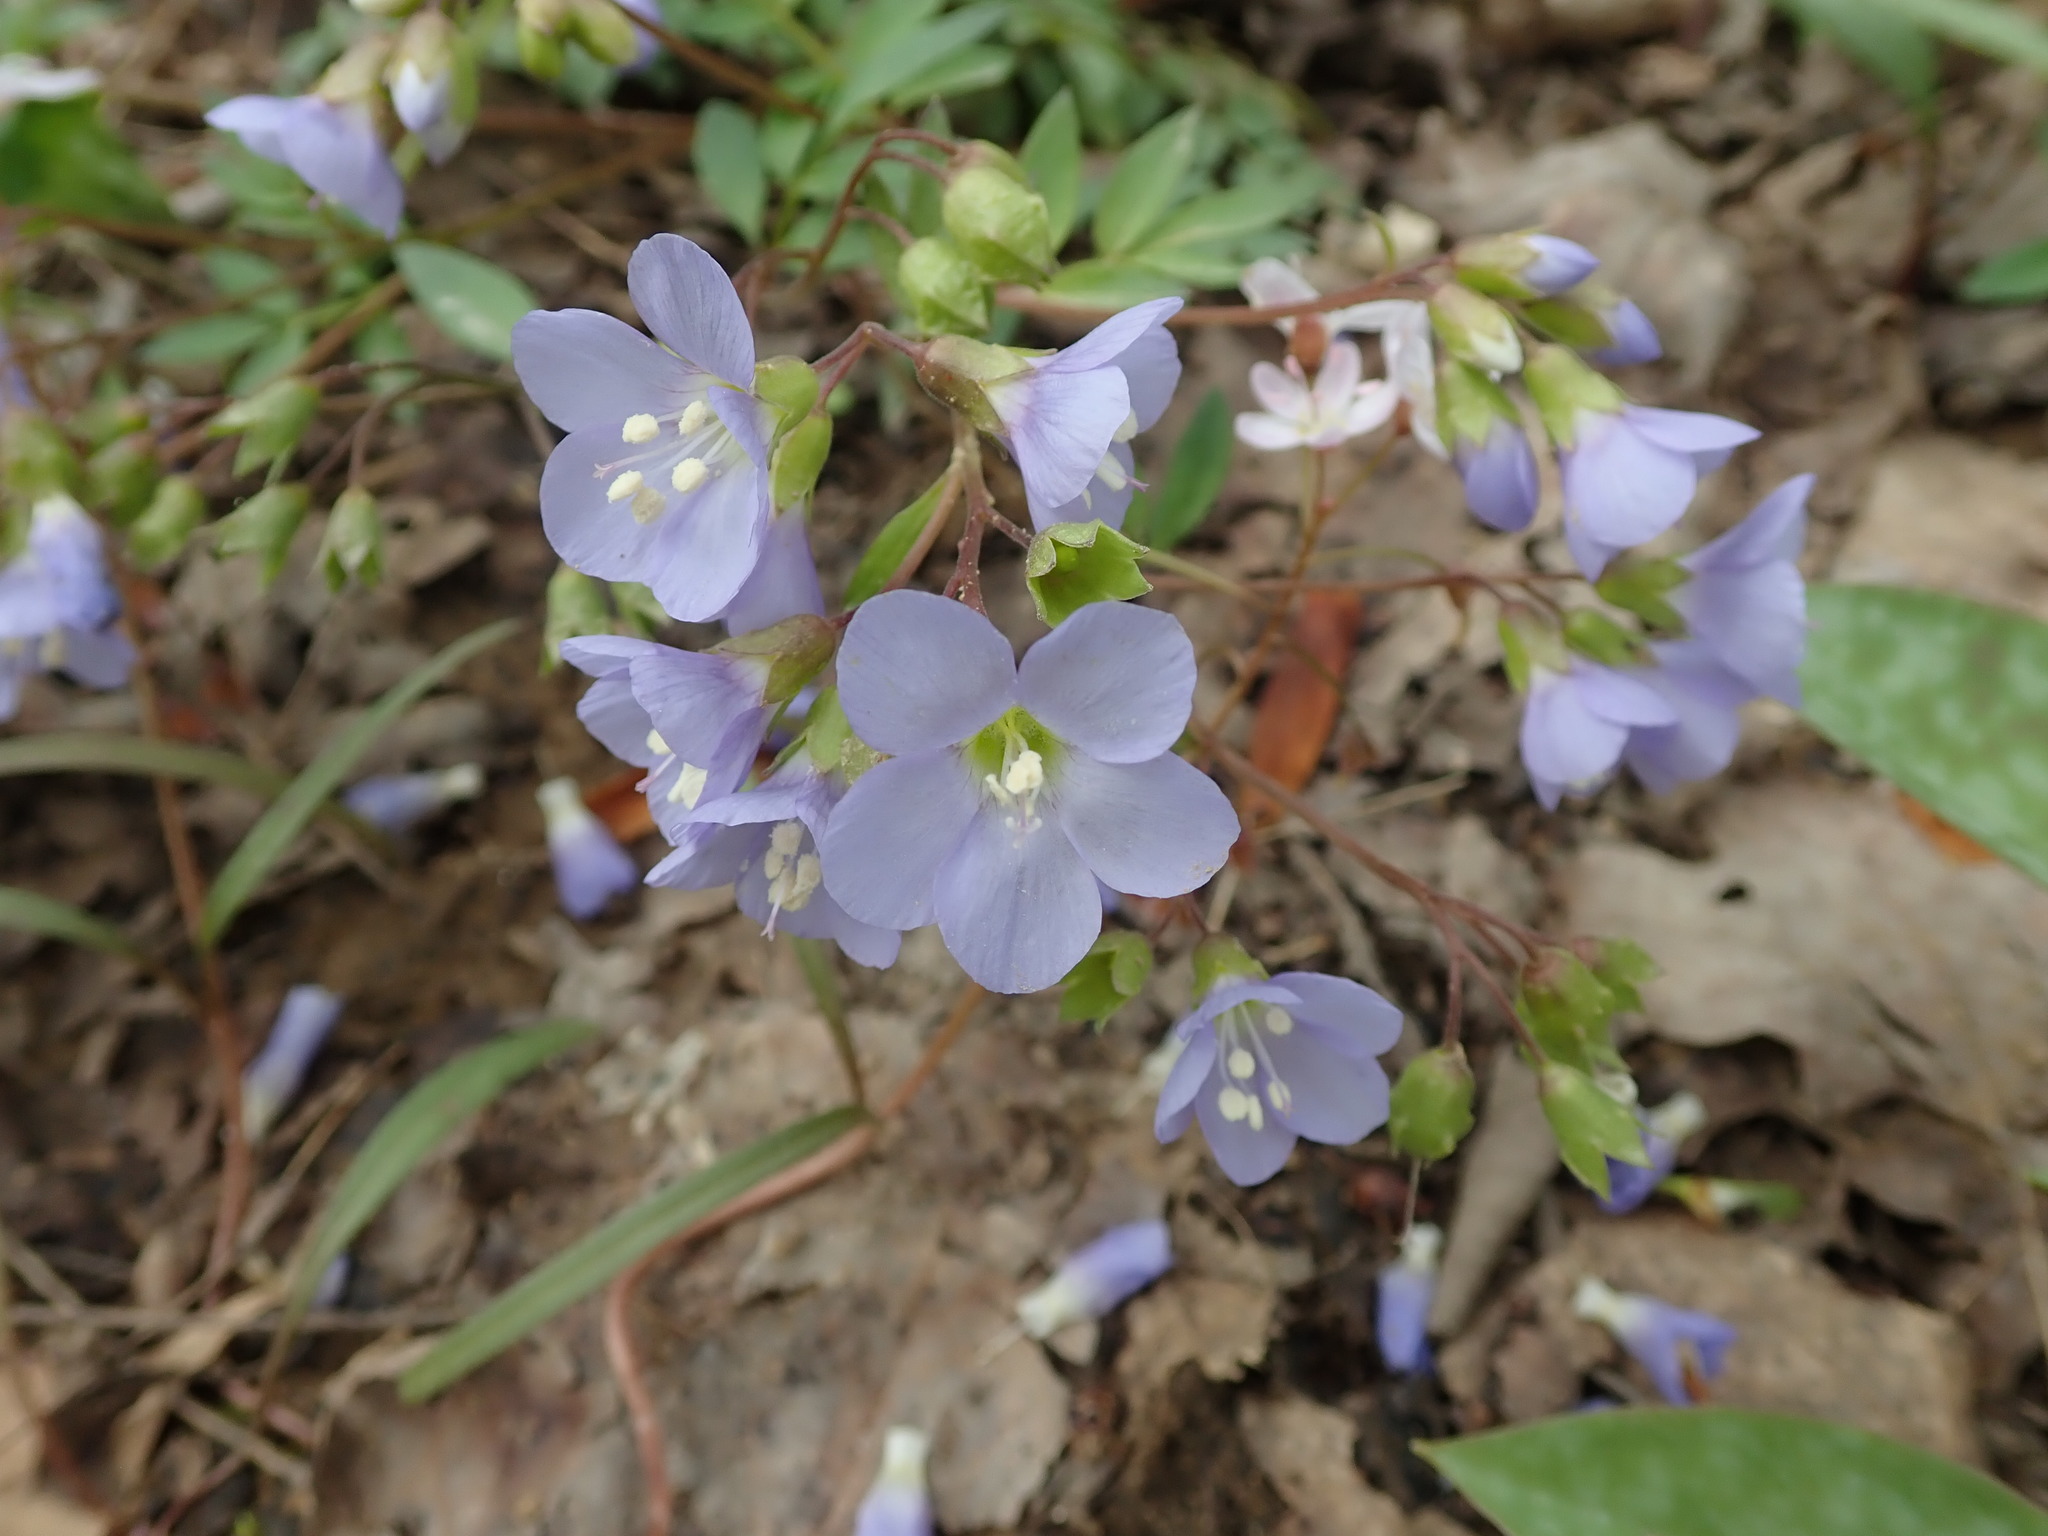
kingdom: Plantae
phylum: Tracheophyta
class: Magnoliopsida
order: Ericales
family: Polemoniaceae
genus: Polemonium
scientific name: Polemonium reptans
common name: Creeping jacob's-ladder
